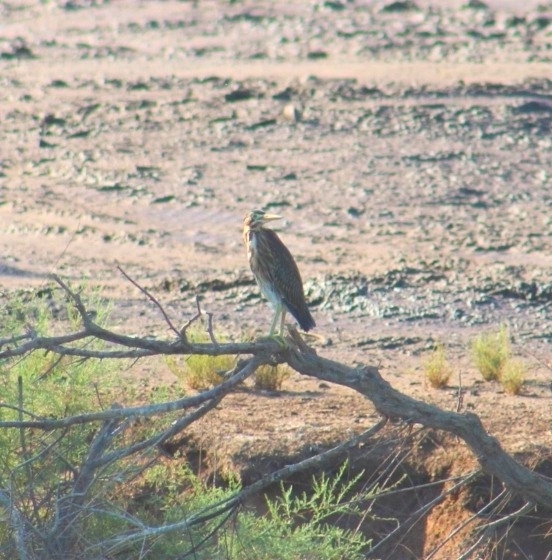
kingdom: Animalia
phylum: Chordata
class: Aves
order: Pelecaniformes
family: Ardeidae
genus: Butorides
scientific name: Butorides virescens
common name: Green heron
